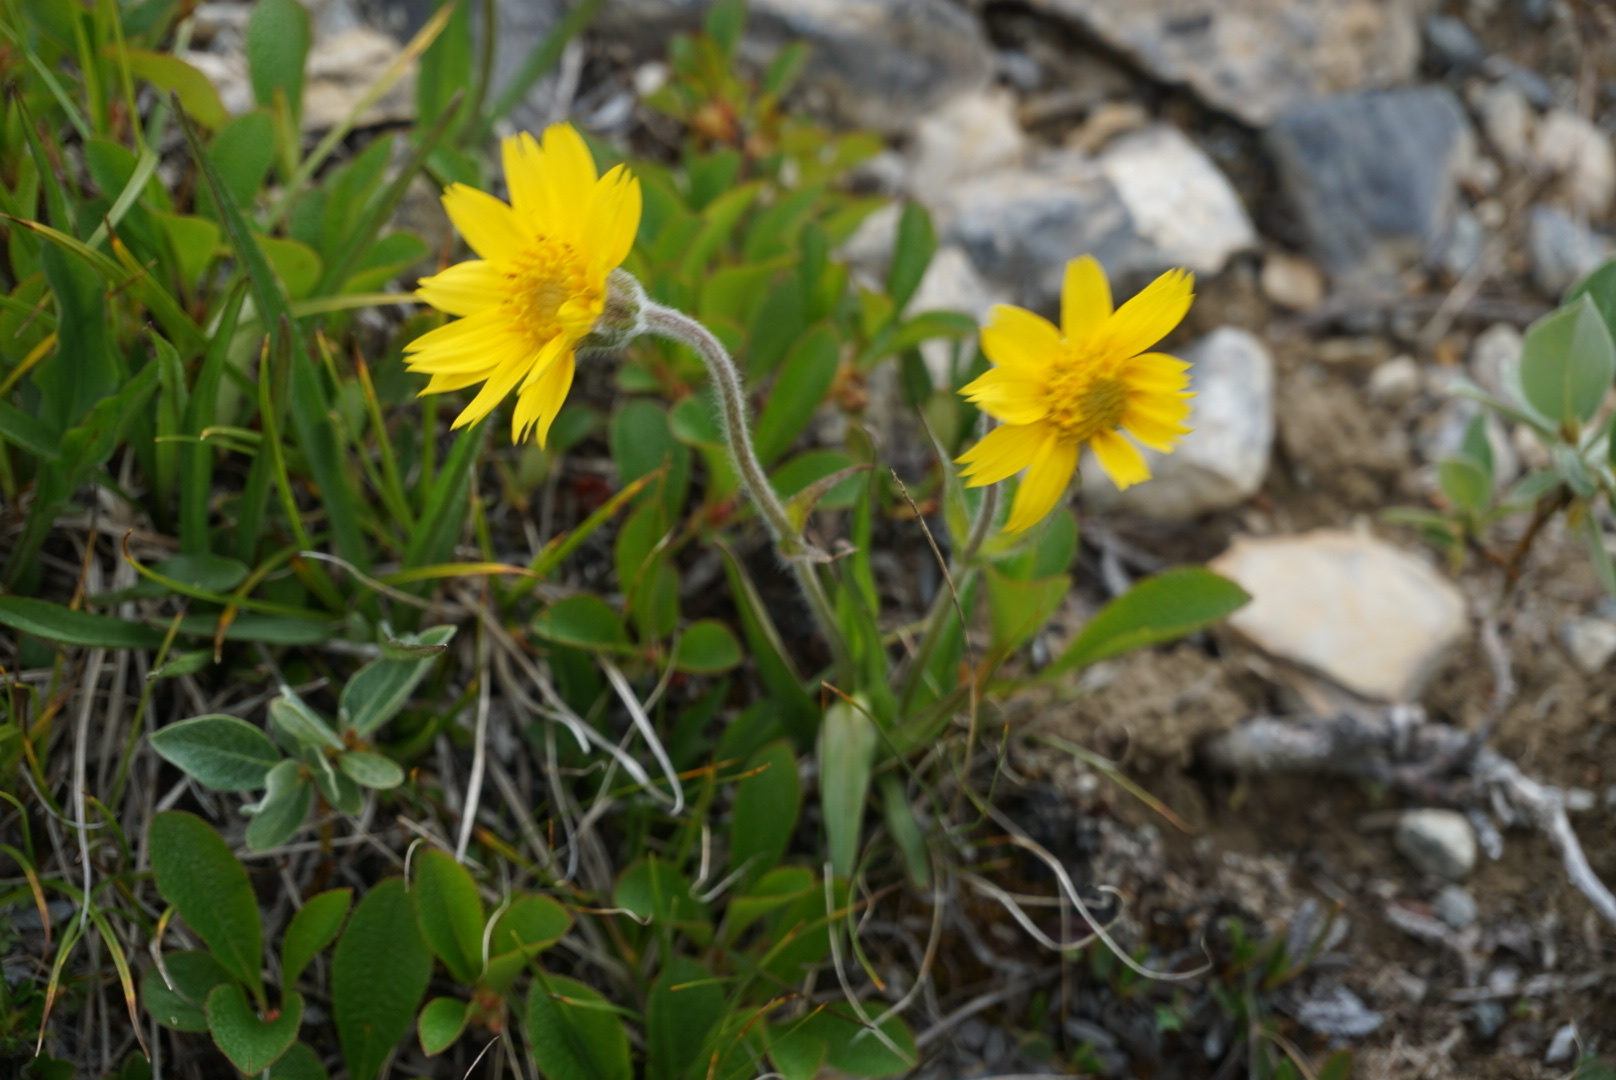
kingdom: Plantae
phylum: Tracheophyta
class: Magnoliopsida
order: Asterales
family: Asteraceae
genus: Arnica
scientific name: Arnica angustifolia
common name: Arctic arnica
